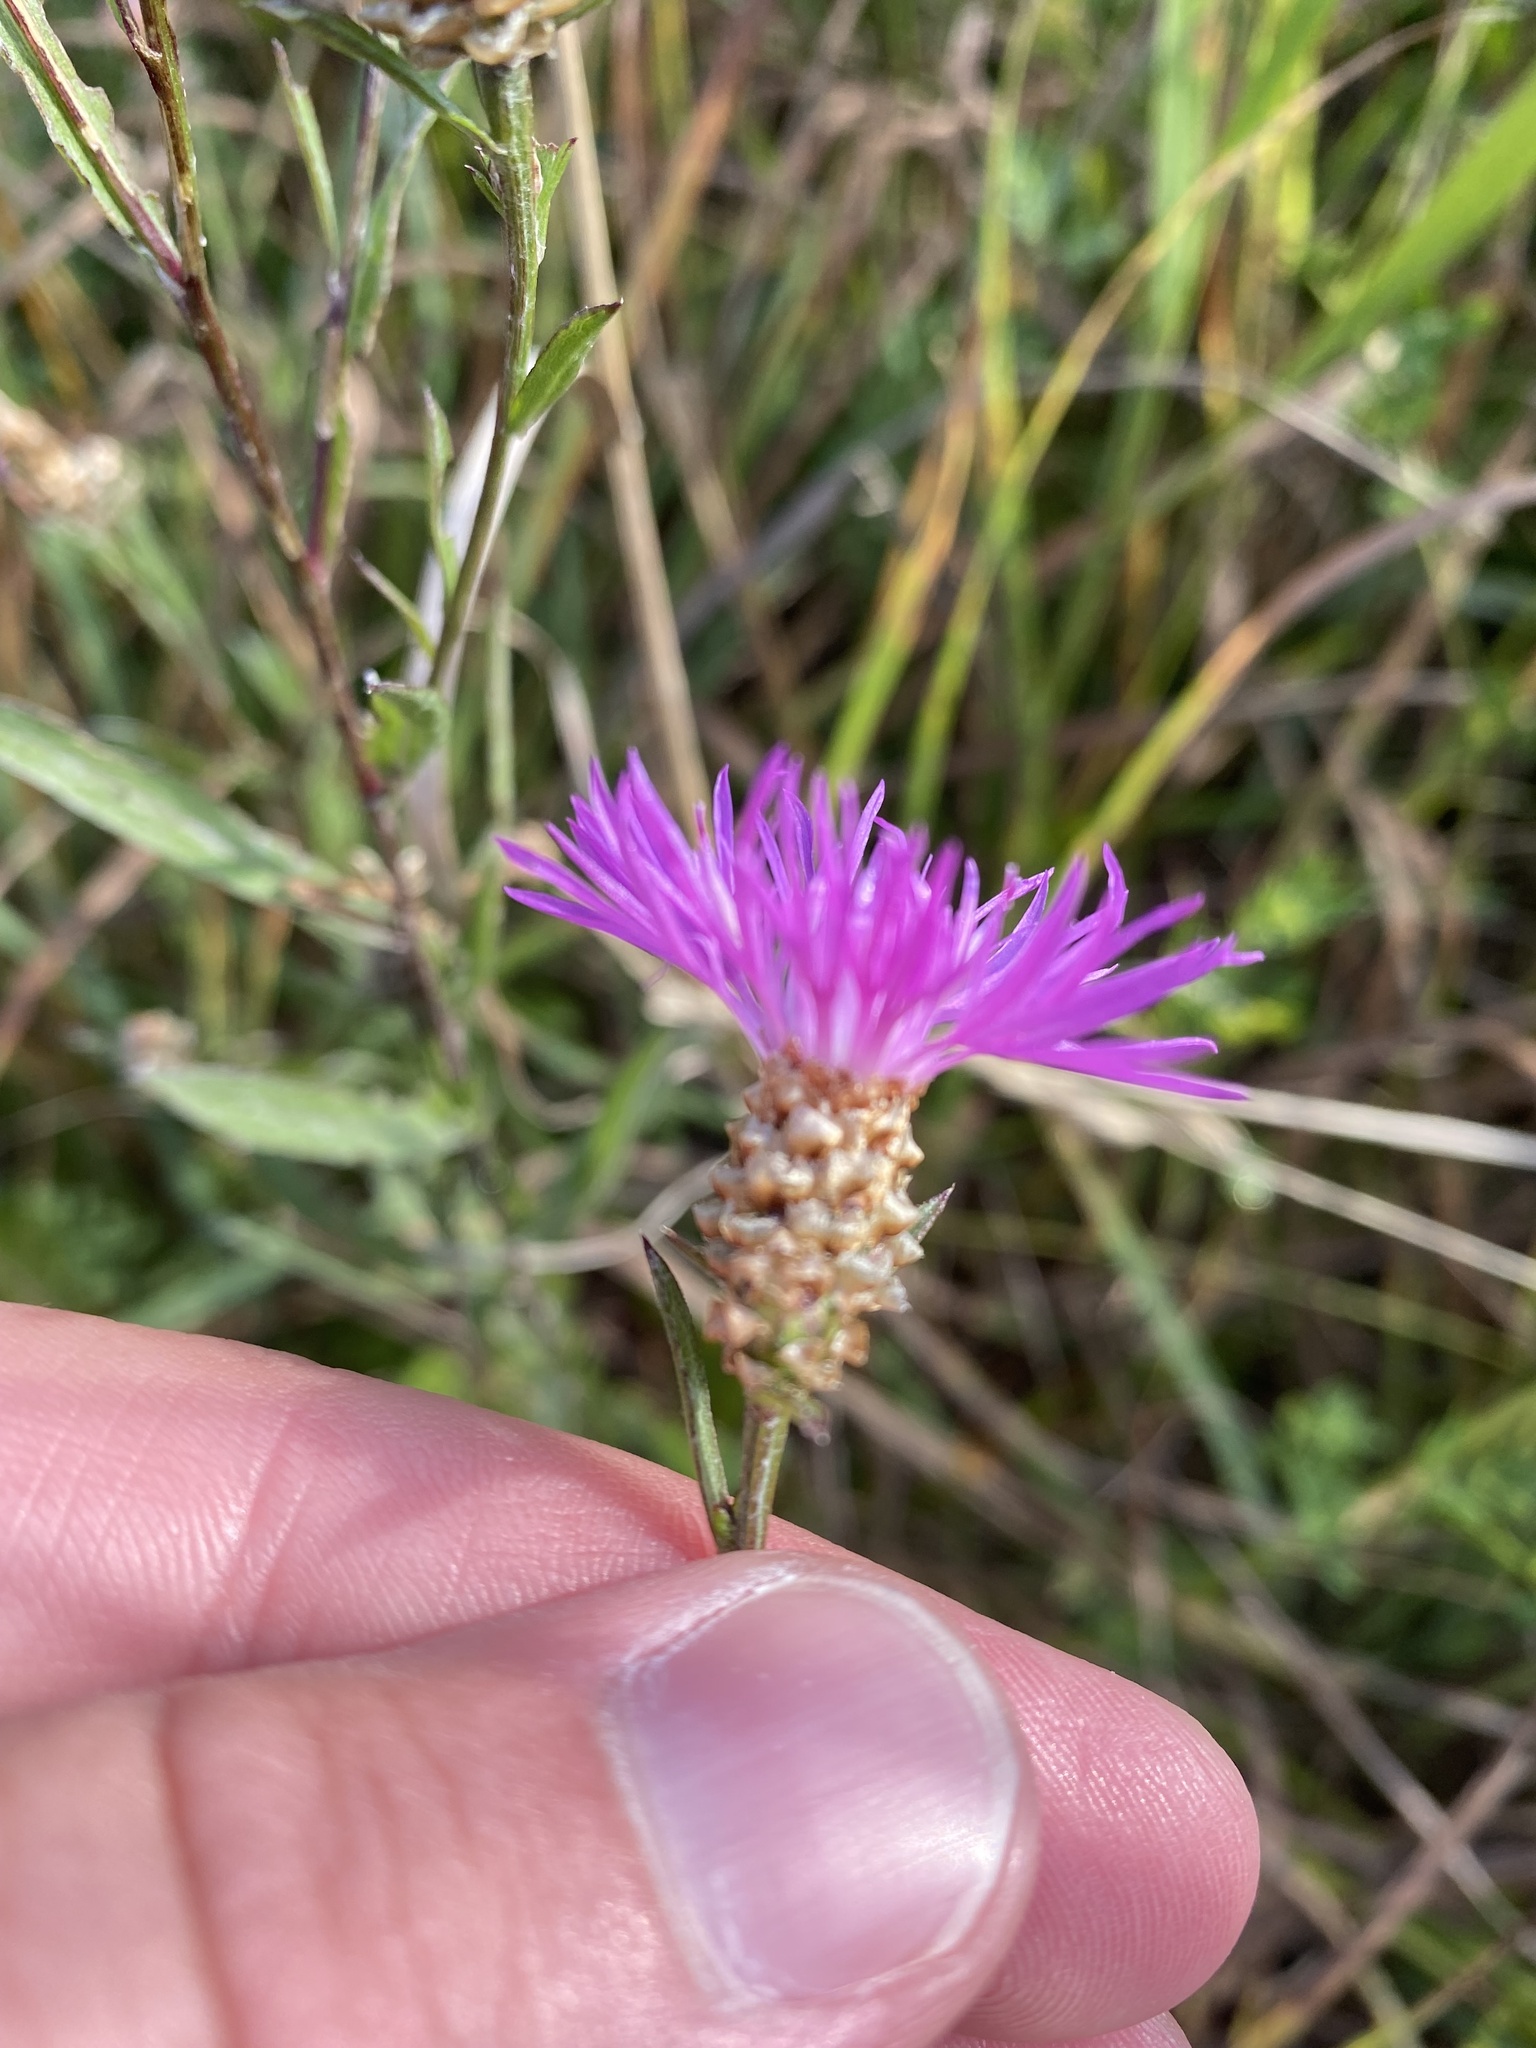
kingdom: Plantae
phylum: Tracheophyta
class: Magnoliopsida
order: Asterales
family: Asteraceae
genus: Centaurea
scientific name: Centaurea stoebe
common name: Spotted knapweed
